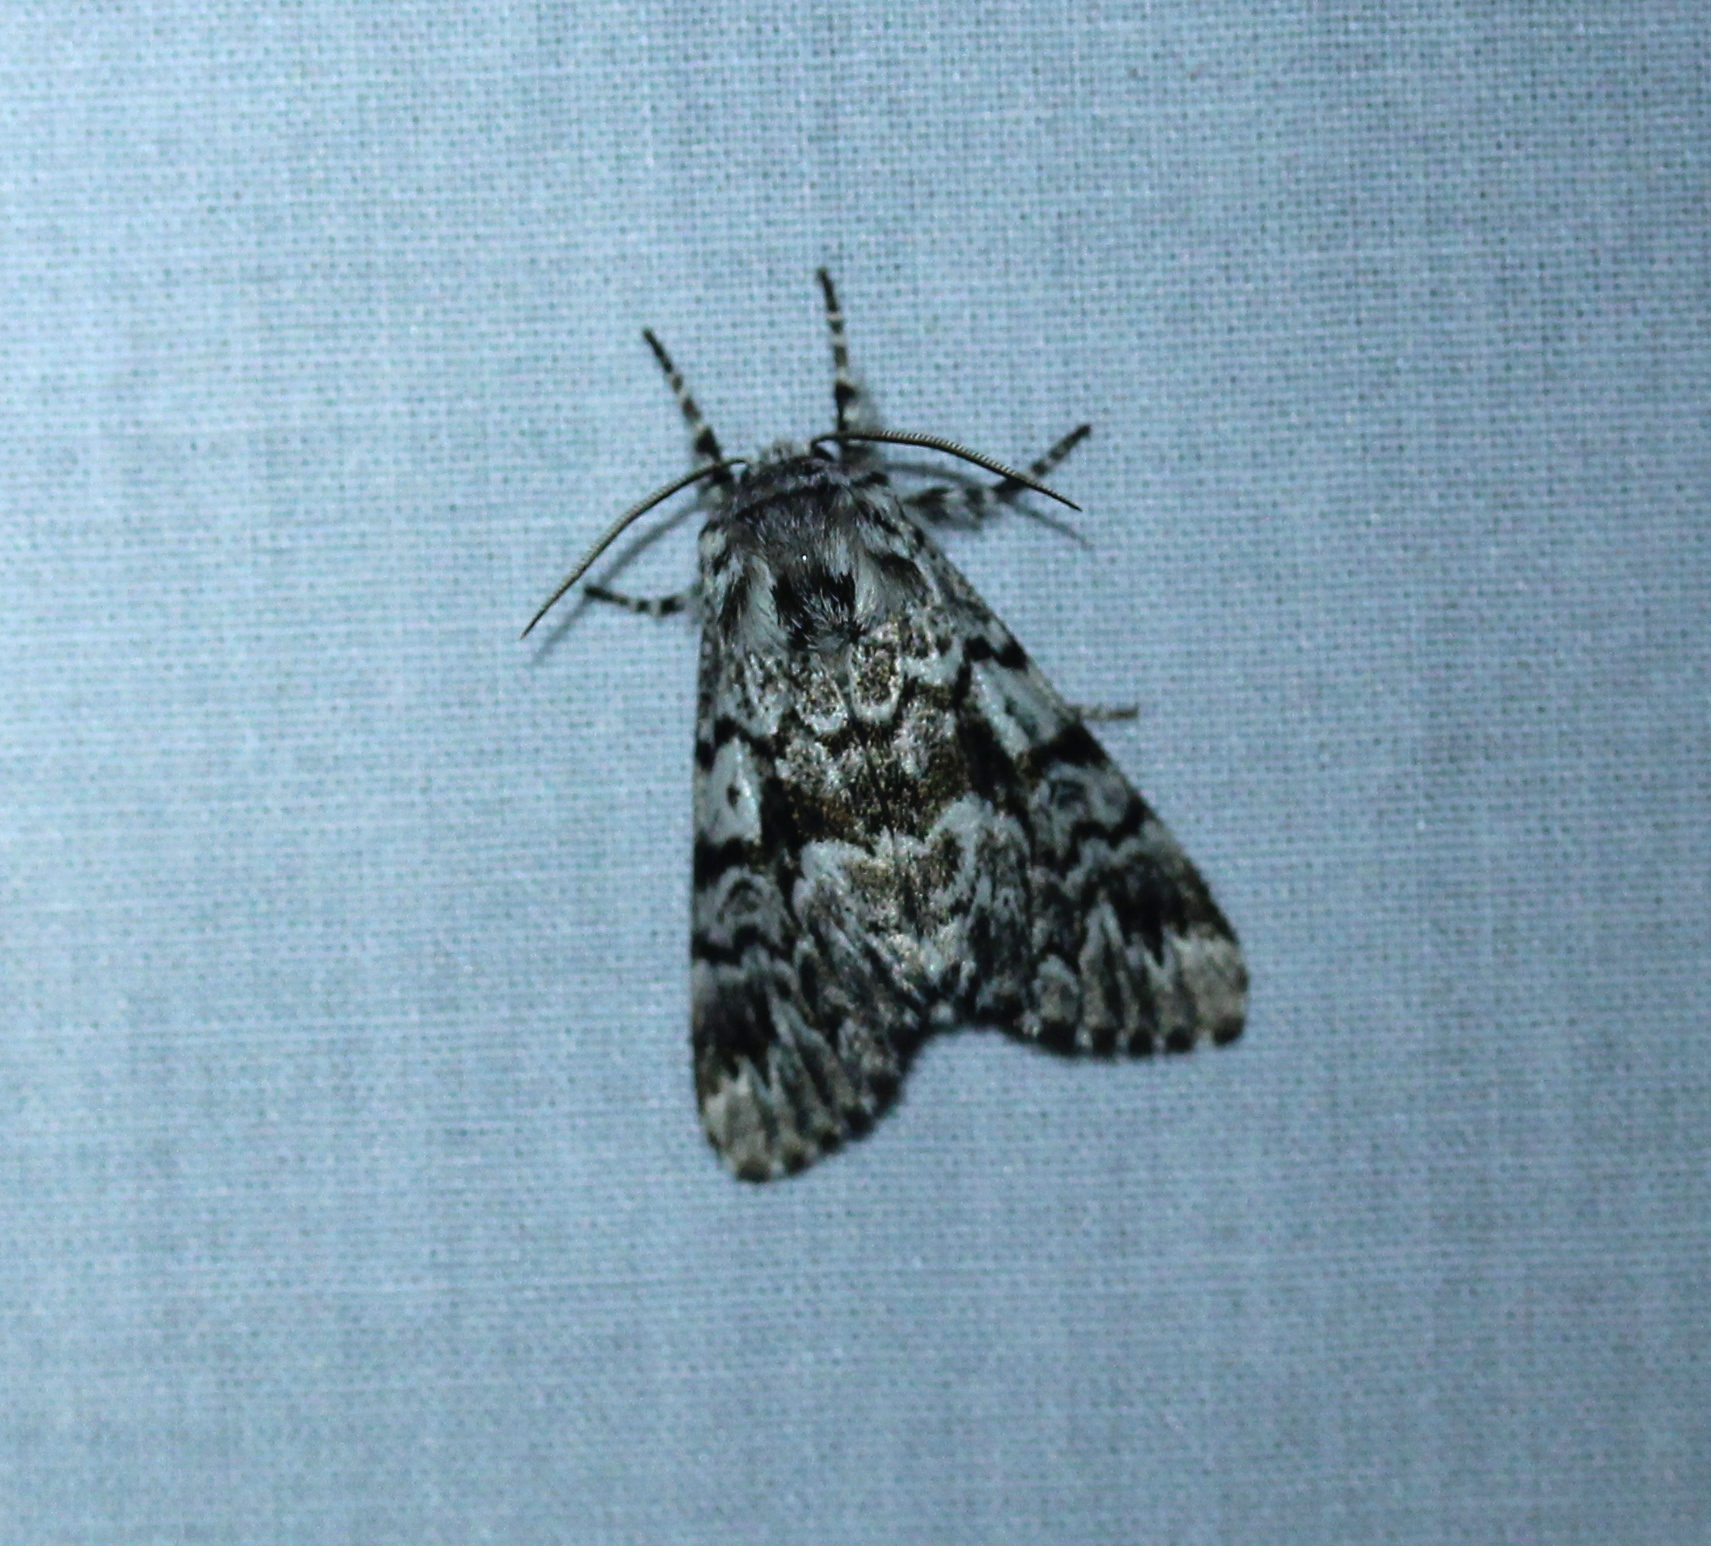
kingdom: Animalia
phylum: Arthropoda
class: Insecta
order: Lepidoptera
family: Noctuidae
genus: Panthea
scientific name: Panthea acronyctoides
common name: Black zigzag moth
